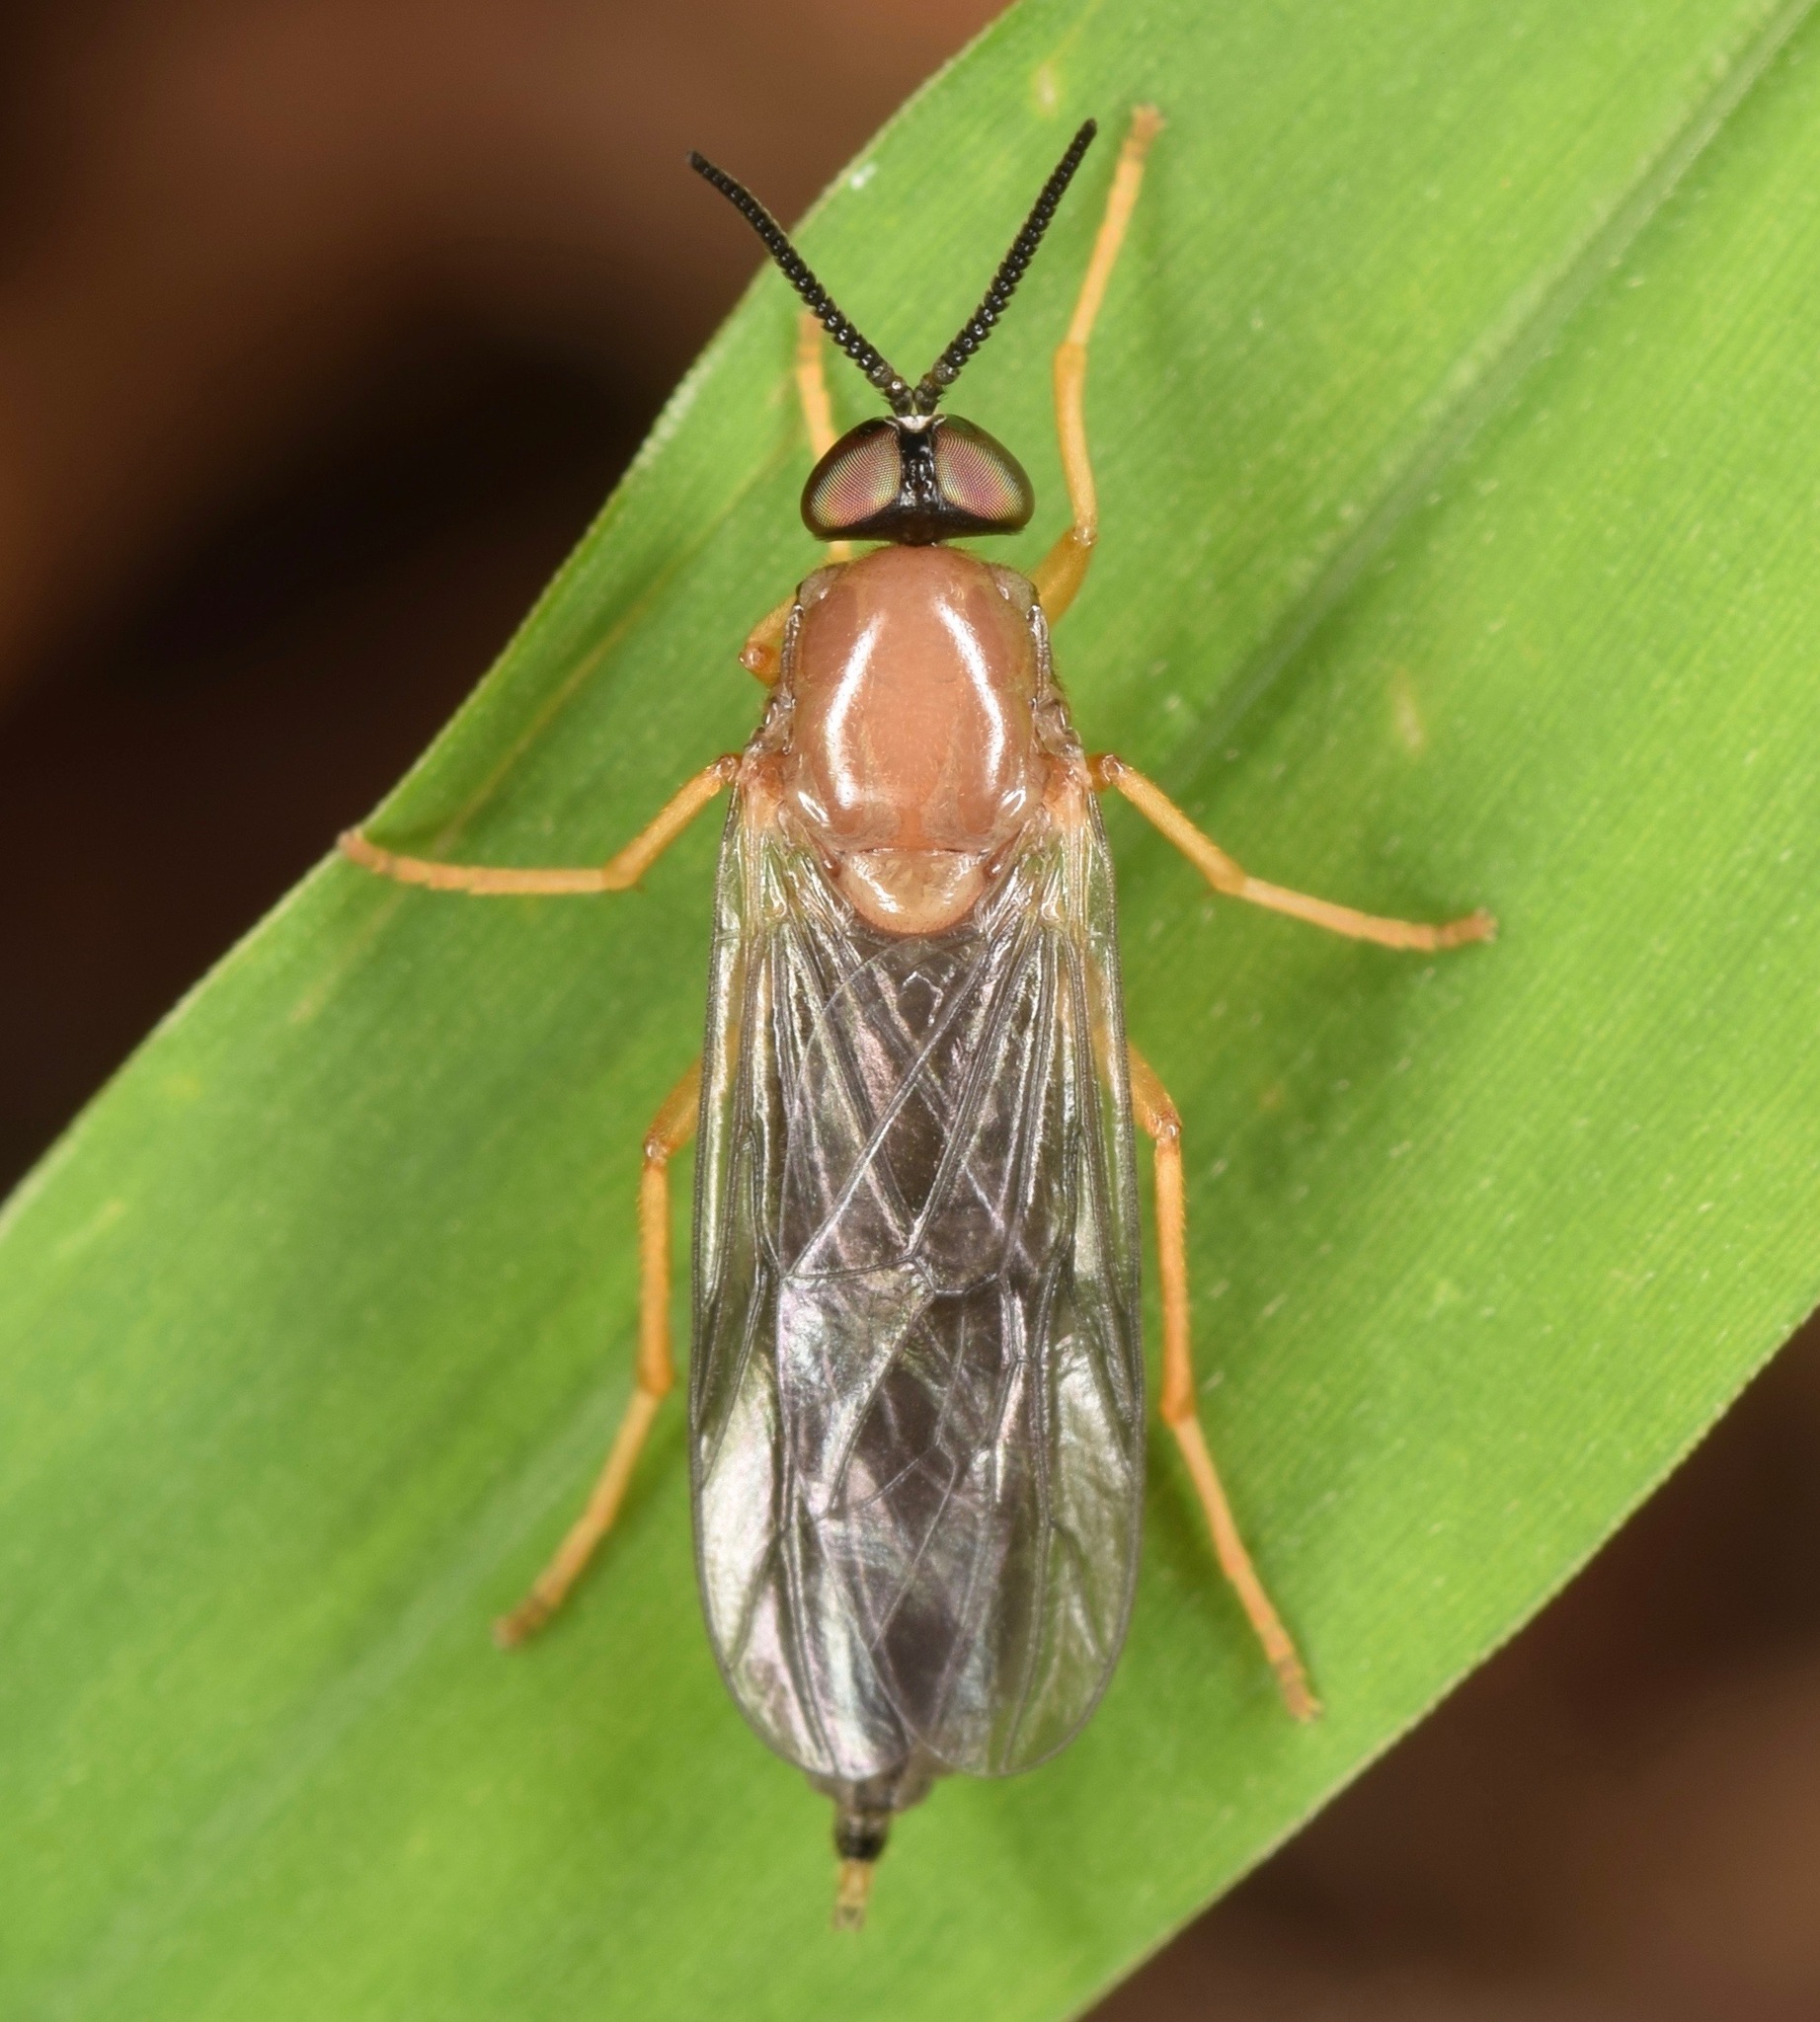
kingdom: Animalia
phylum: Arthropoda
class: Insecta
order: Diptera
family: Xylophagidae
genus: Rachicerus
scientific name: Rachicerus fulvicollis
